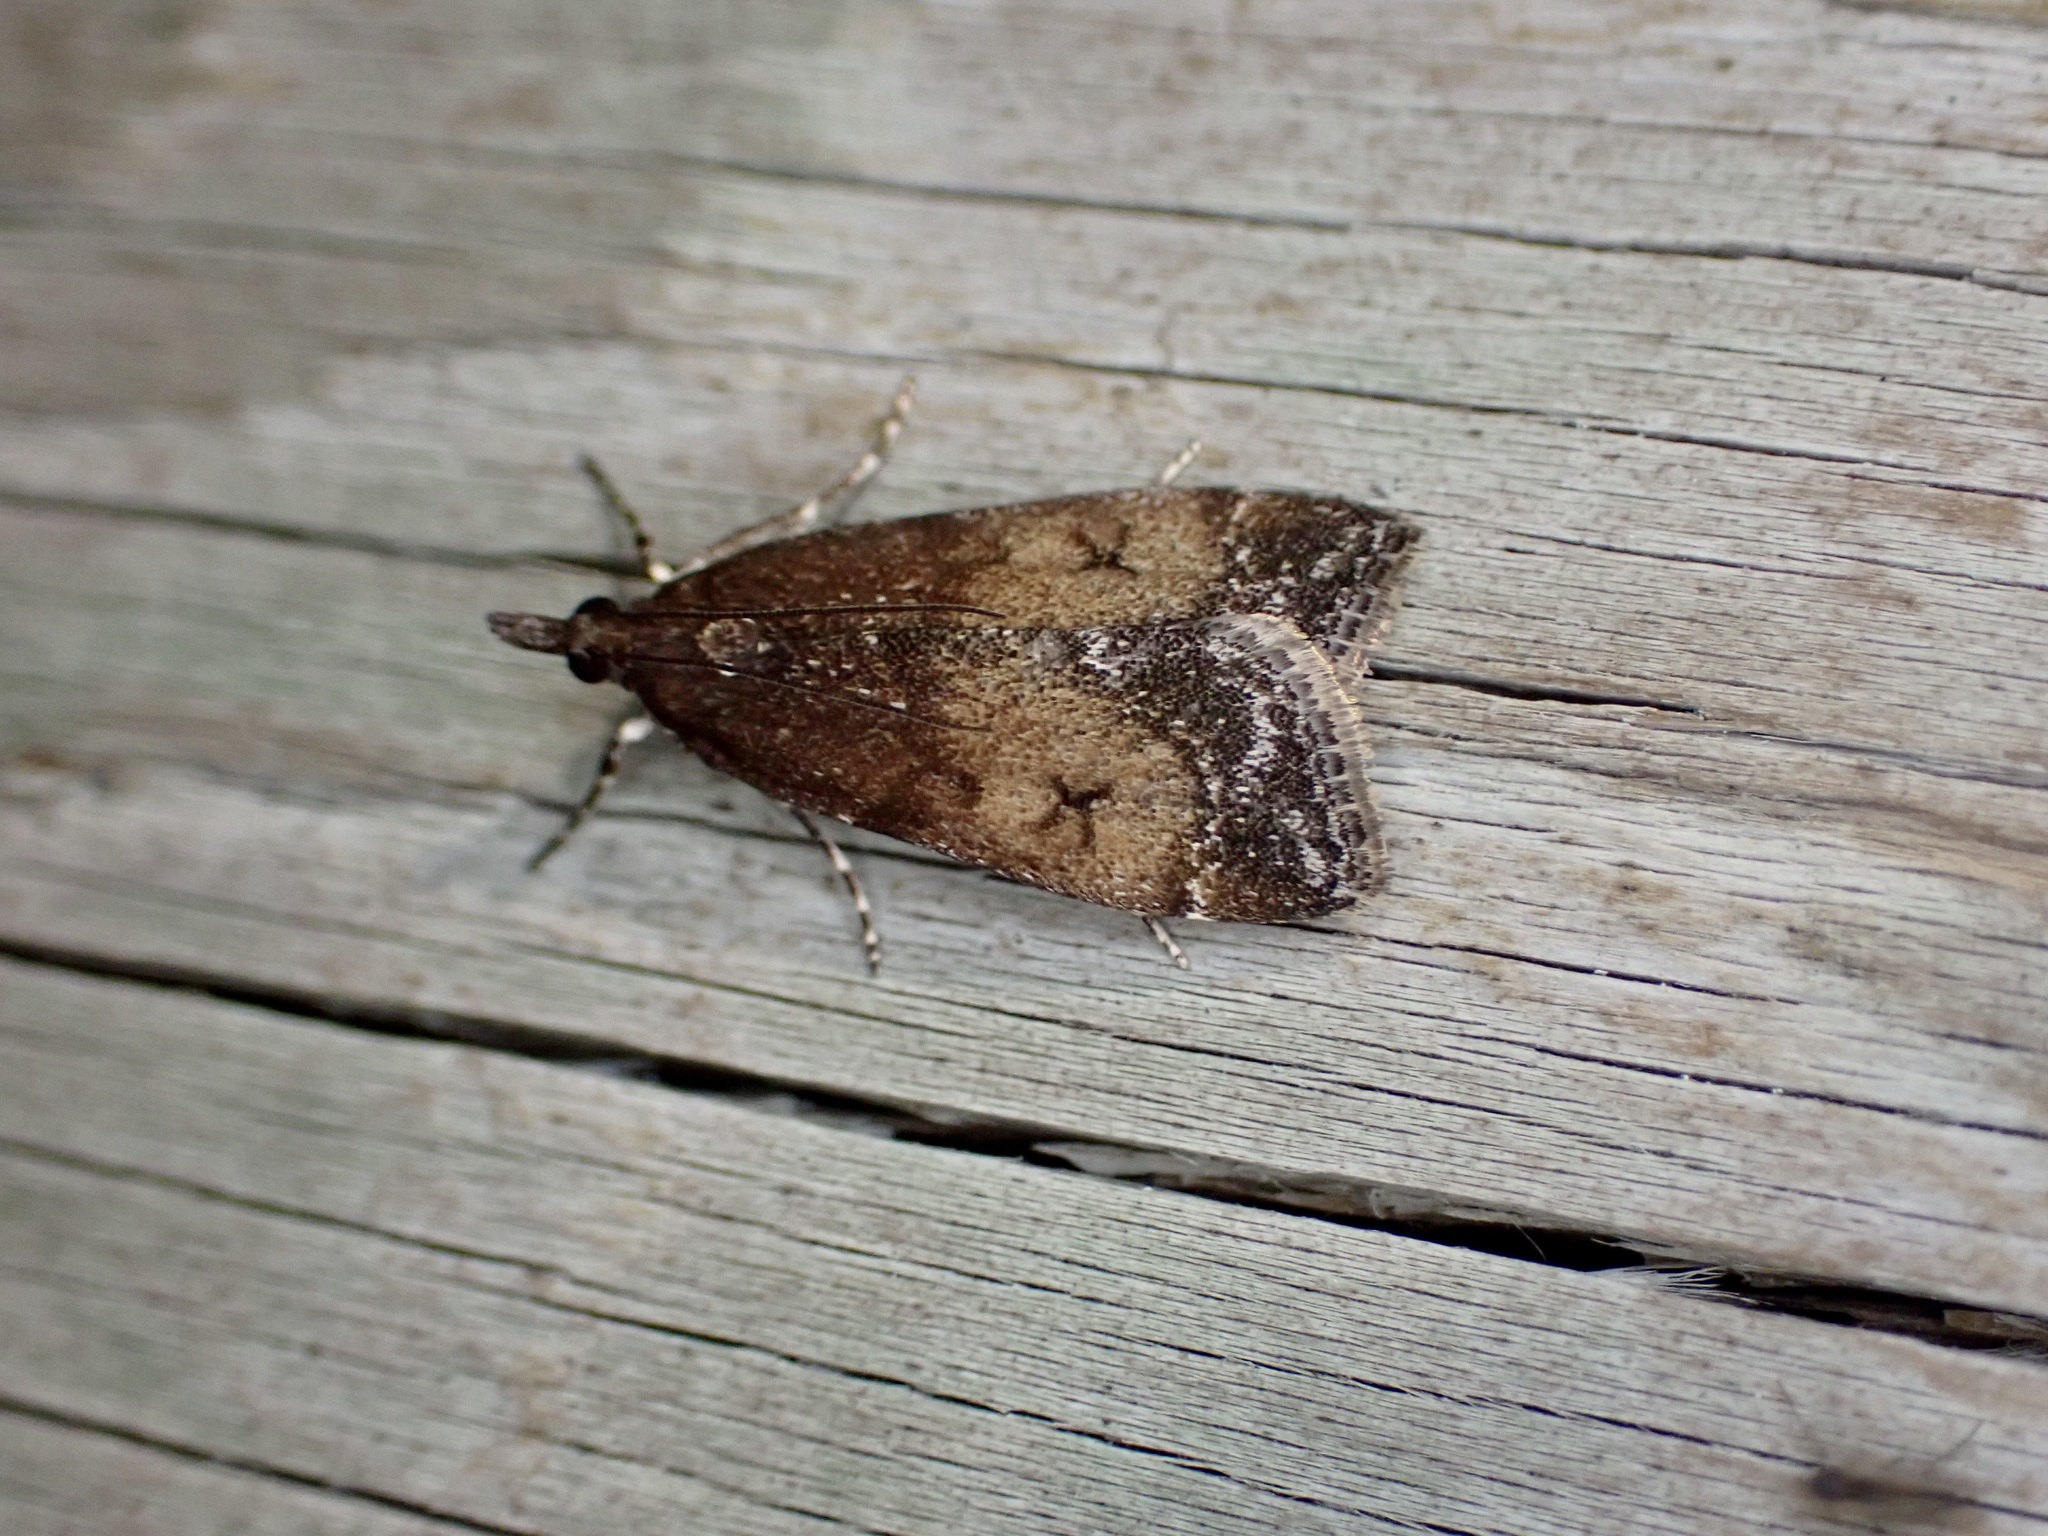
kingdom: Animalia
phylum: Arthropoda
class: Insecta
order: Lepidoptera
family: Crambidae
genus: Eudonia
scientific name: Eudonia asterisca
